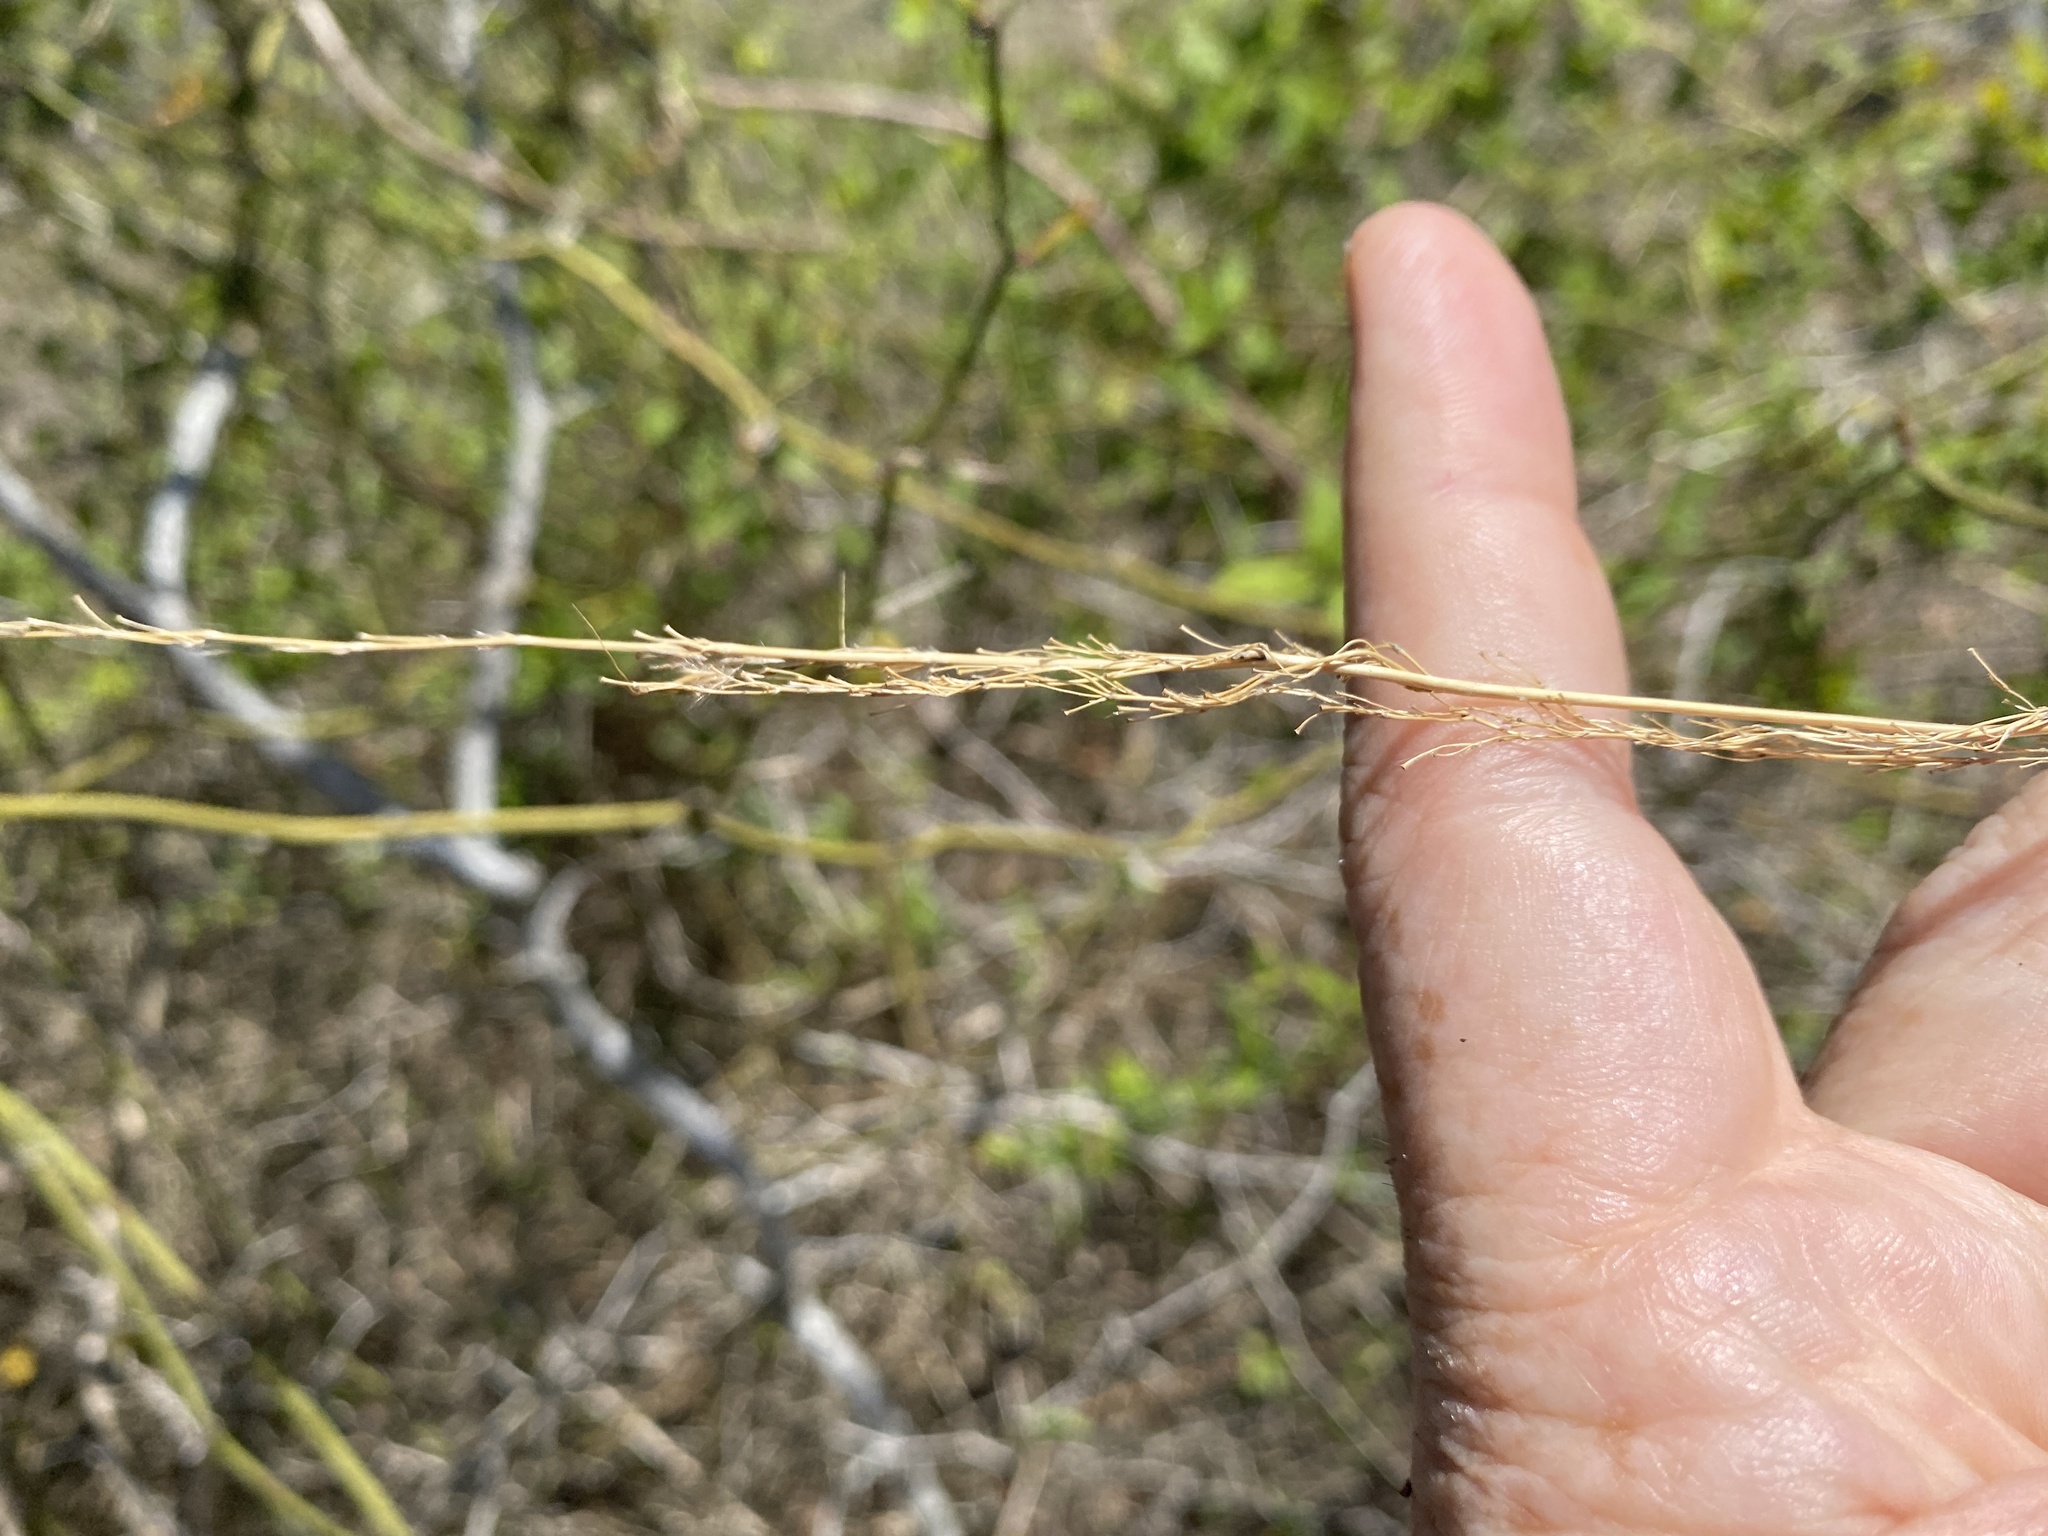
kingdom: Plantae
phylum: Tracheophyta
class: Liliopsida
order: Poales
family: Poaceae
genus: Sorghastrum
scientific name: Sorghastrum nutans
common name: Indian grass
